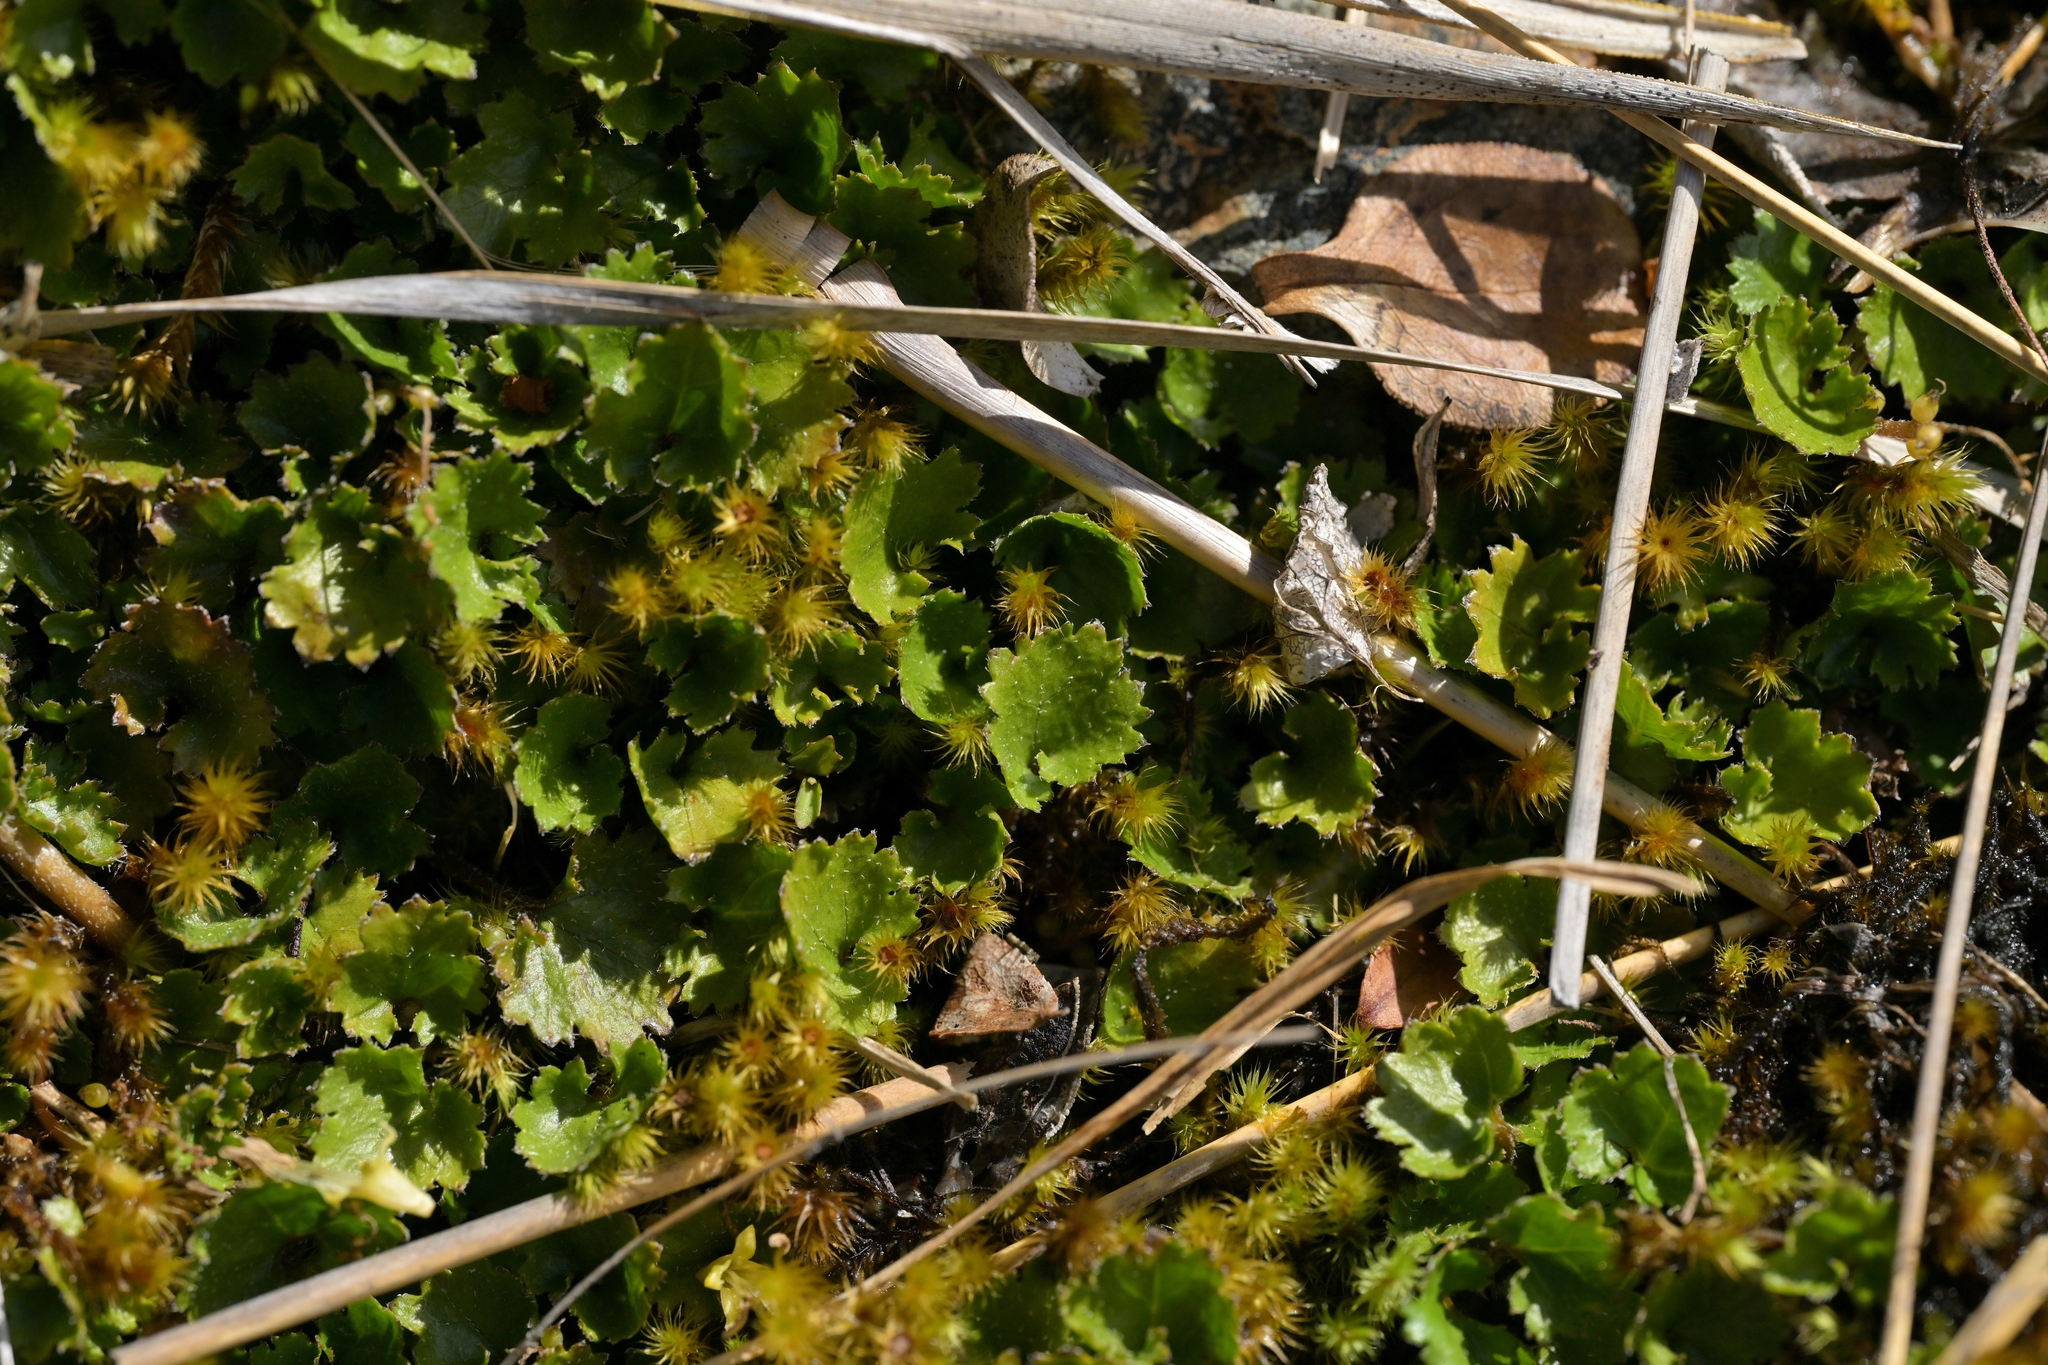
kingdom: Plantae
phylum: Tracheophyta
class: Magnoliopsida
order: Gunnerales
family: Gunneraceae
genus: Gunnera
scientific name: Gunnera monoica
